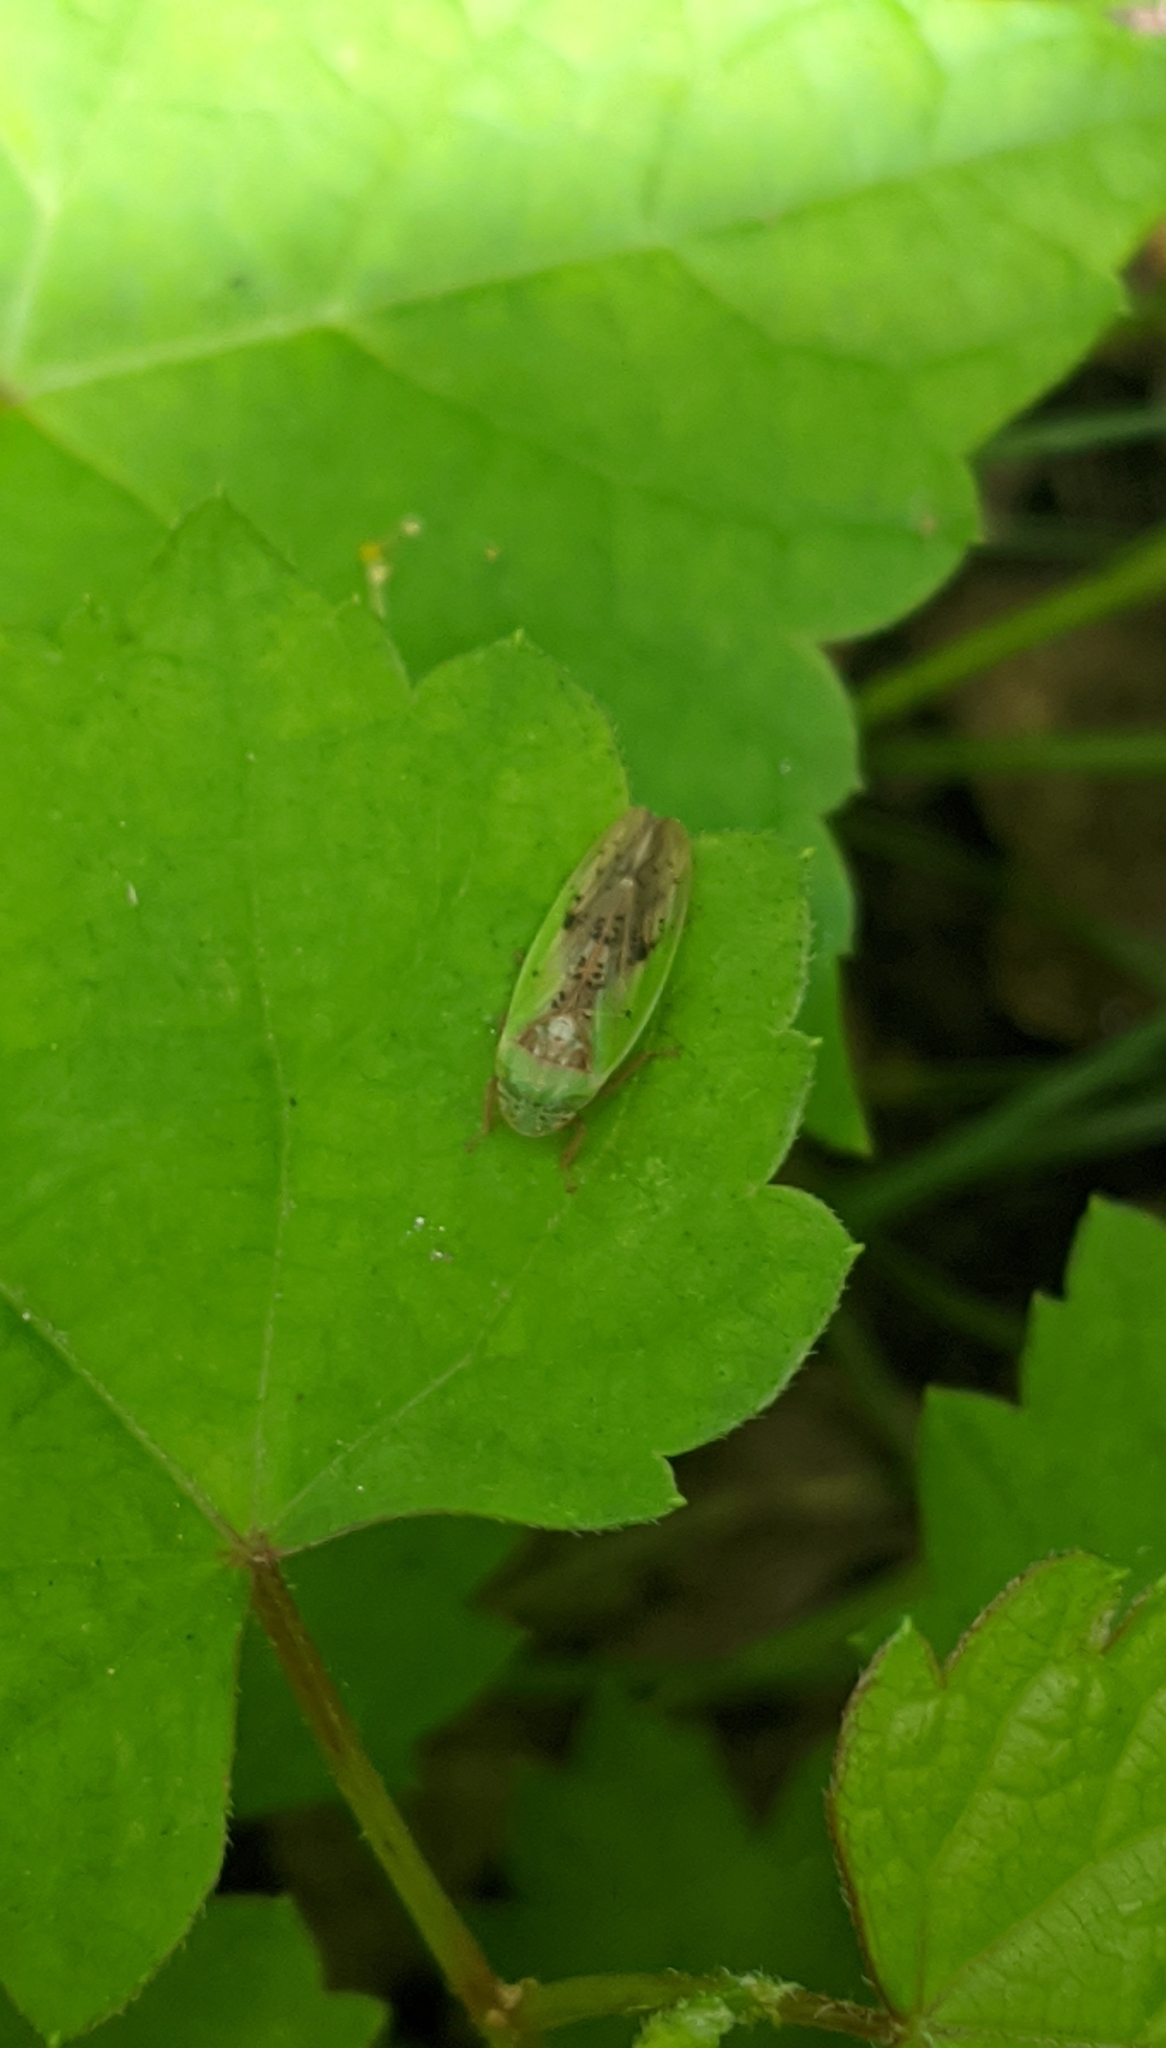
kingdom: Animalia
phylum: Arthropoda
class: Insecta
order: Hemiptera
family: Cicadellidae
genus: Ponana
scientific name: Ponana pectoralis
